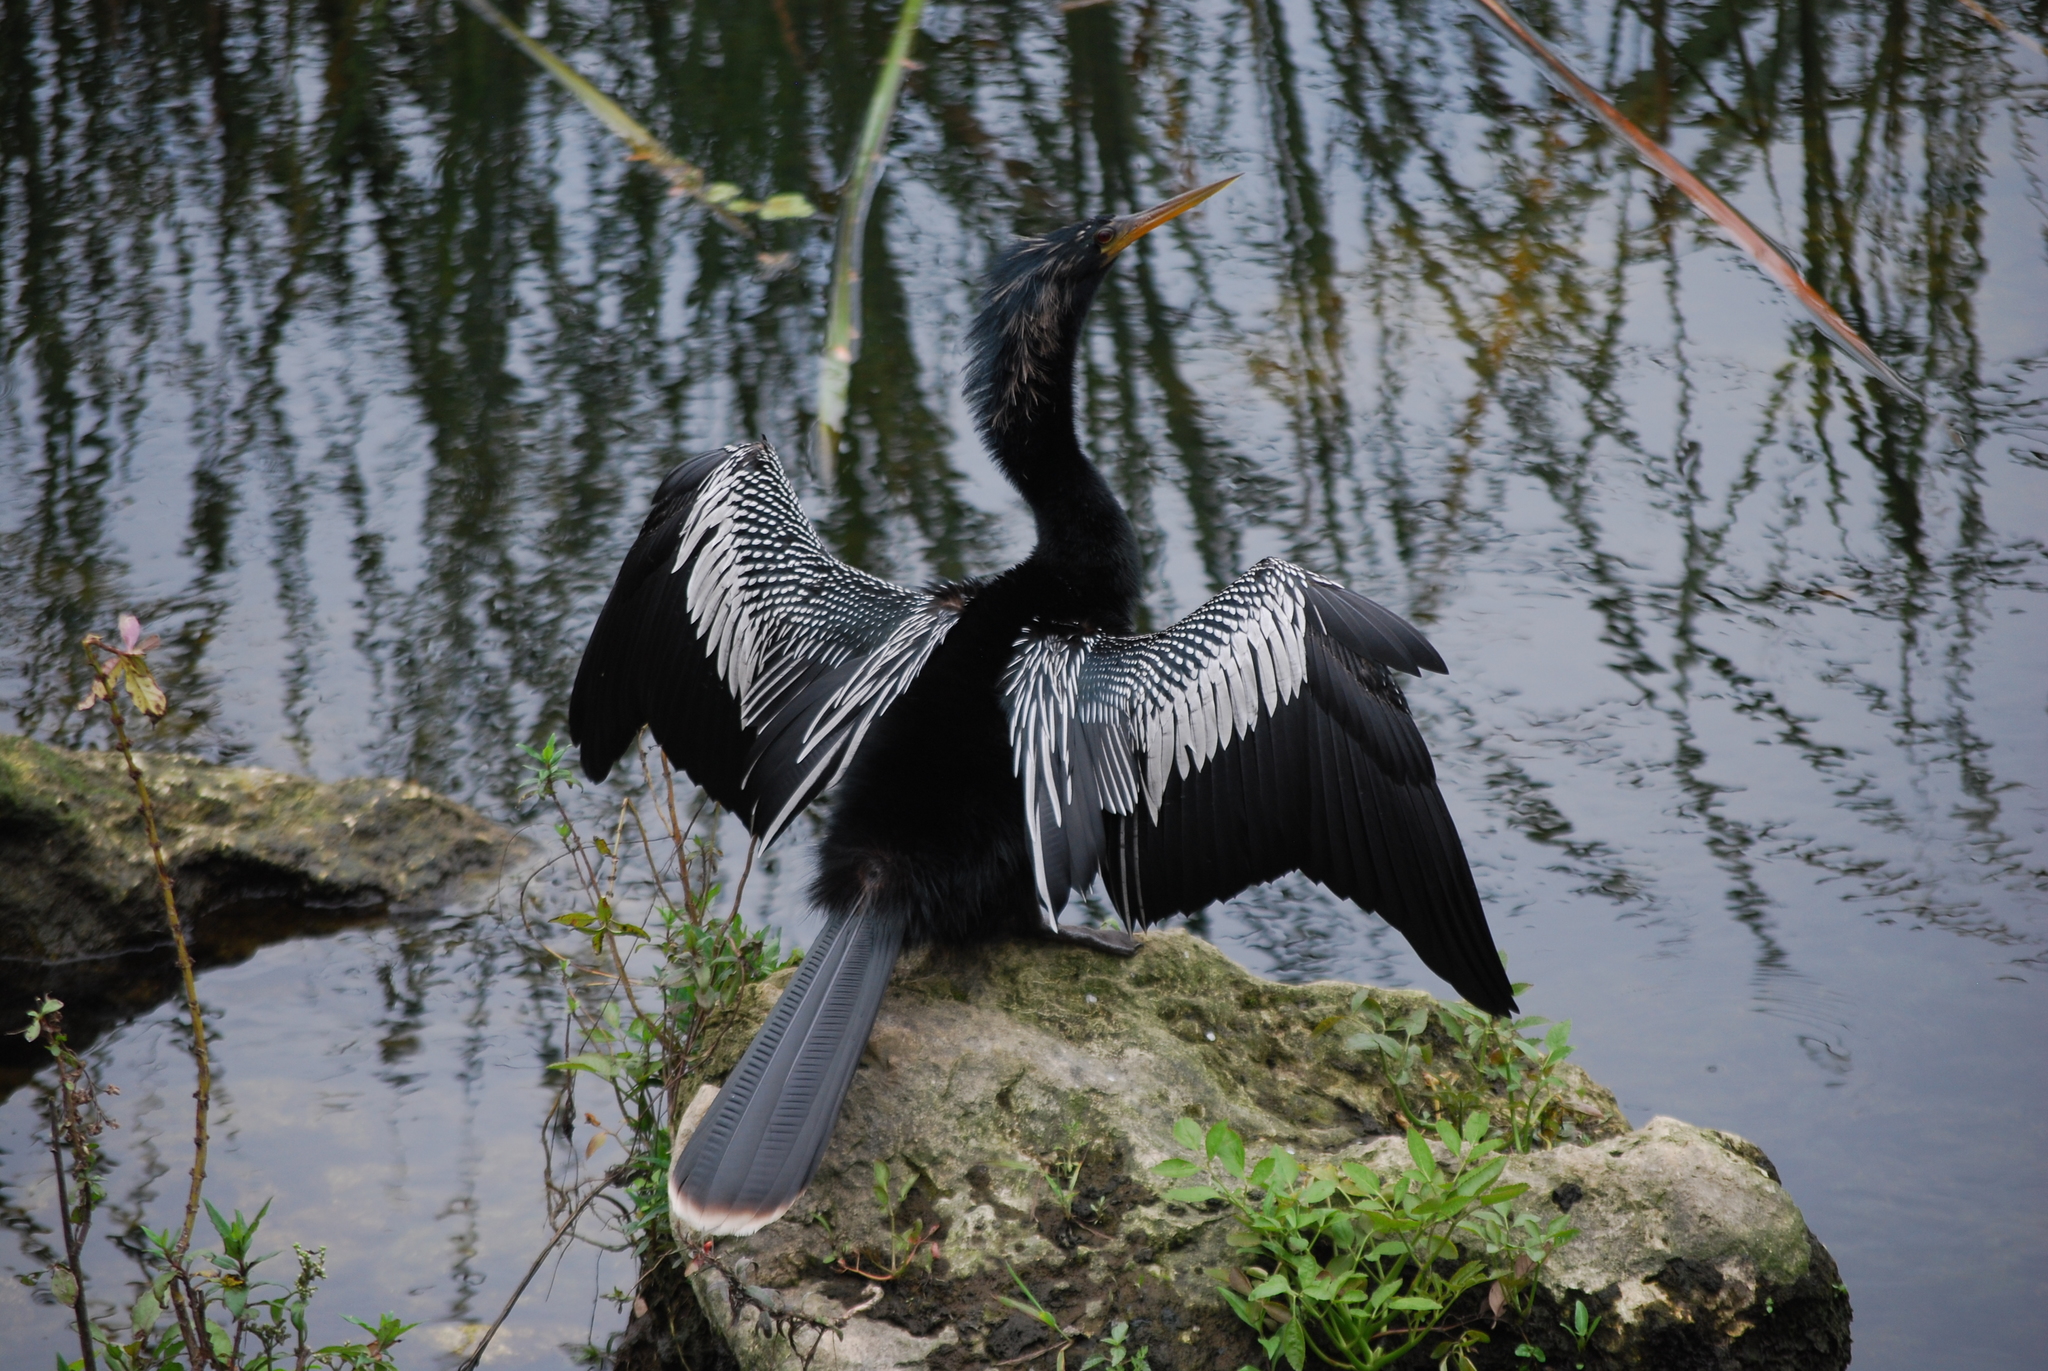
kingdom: Animalia
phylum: Chordata
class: Aves
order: Suliformes
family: Anhingidae
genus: Anhinga
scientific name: Anhinga anhinga
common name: Anhinga
